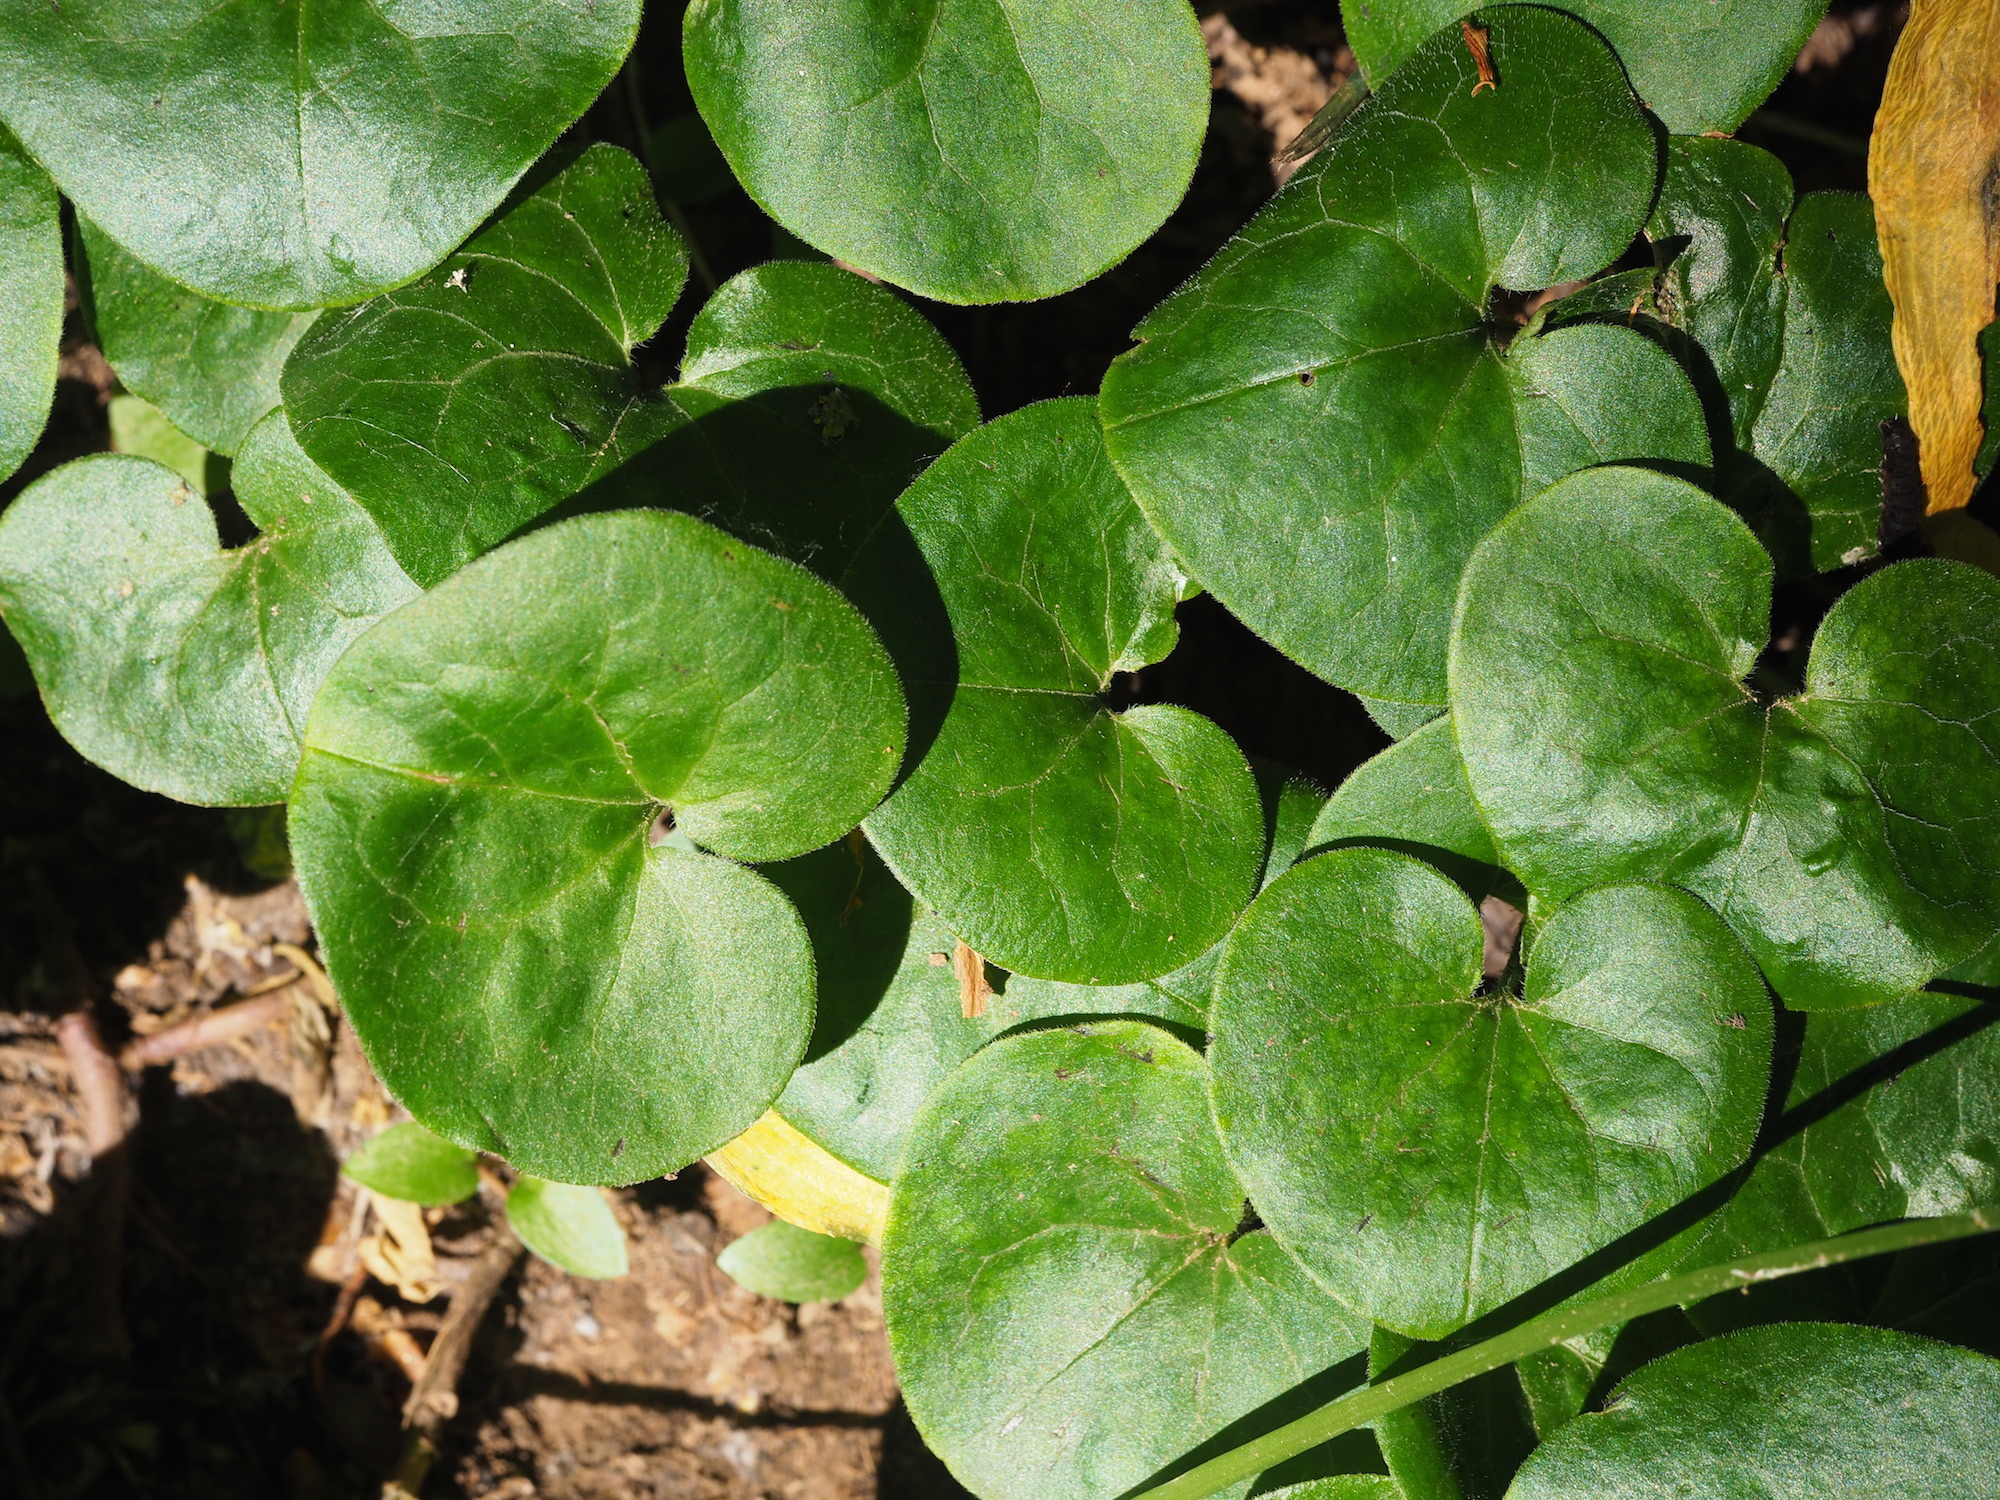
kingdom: Plantae
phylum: Tracheophyta
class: Magnoliopsida
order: Piperales
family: Aristolochiaceae
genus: Asarum
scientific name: Asarum europaeum
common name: Asarabacca
